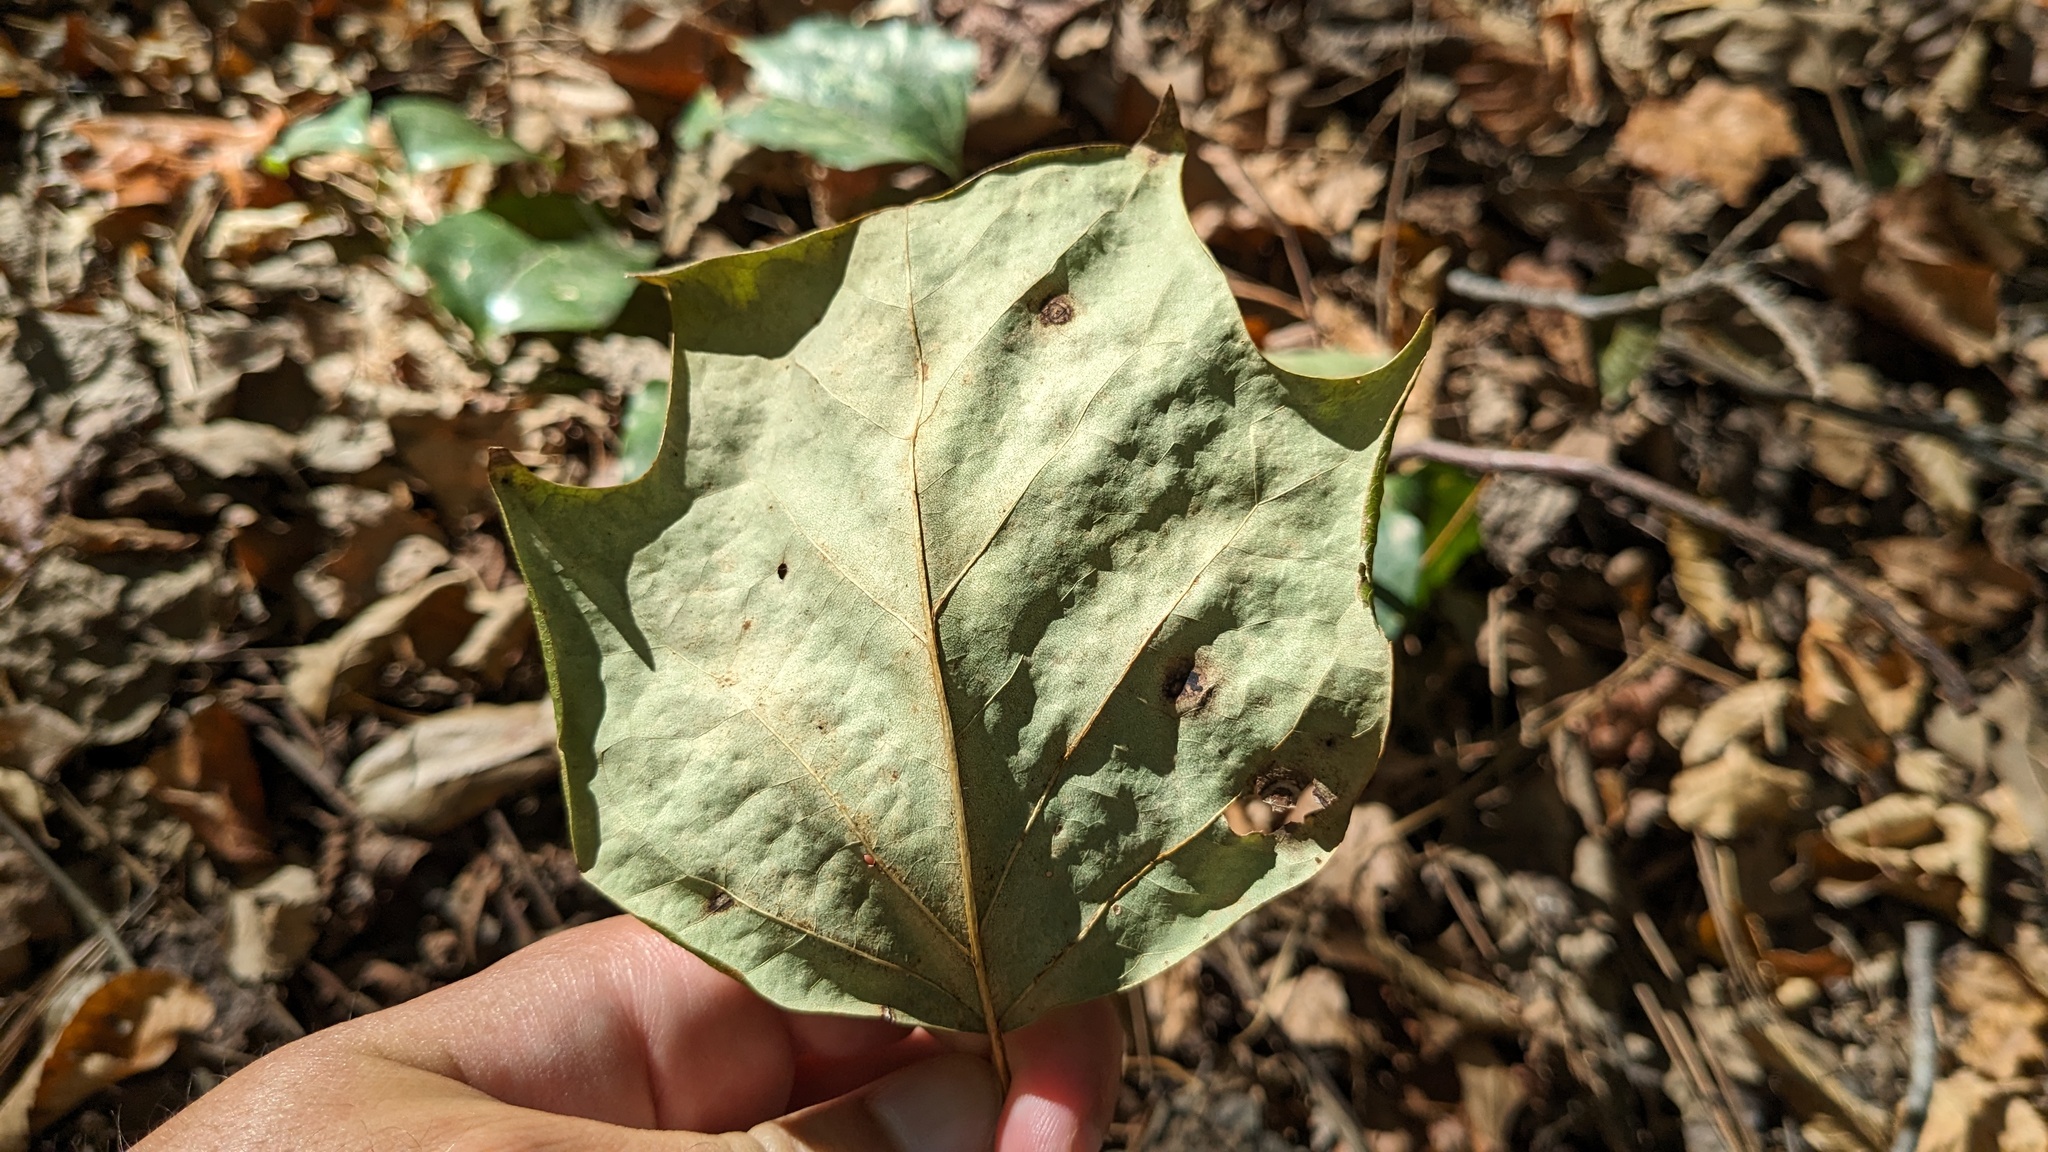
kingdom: Plantae
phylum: Tracheophyta
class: Magnoliopsida
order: Magnoliales
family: Magnoliaceae
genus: Liriodendron
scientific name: Liriodendron tulipifera
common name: Tulip tree
